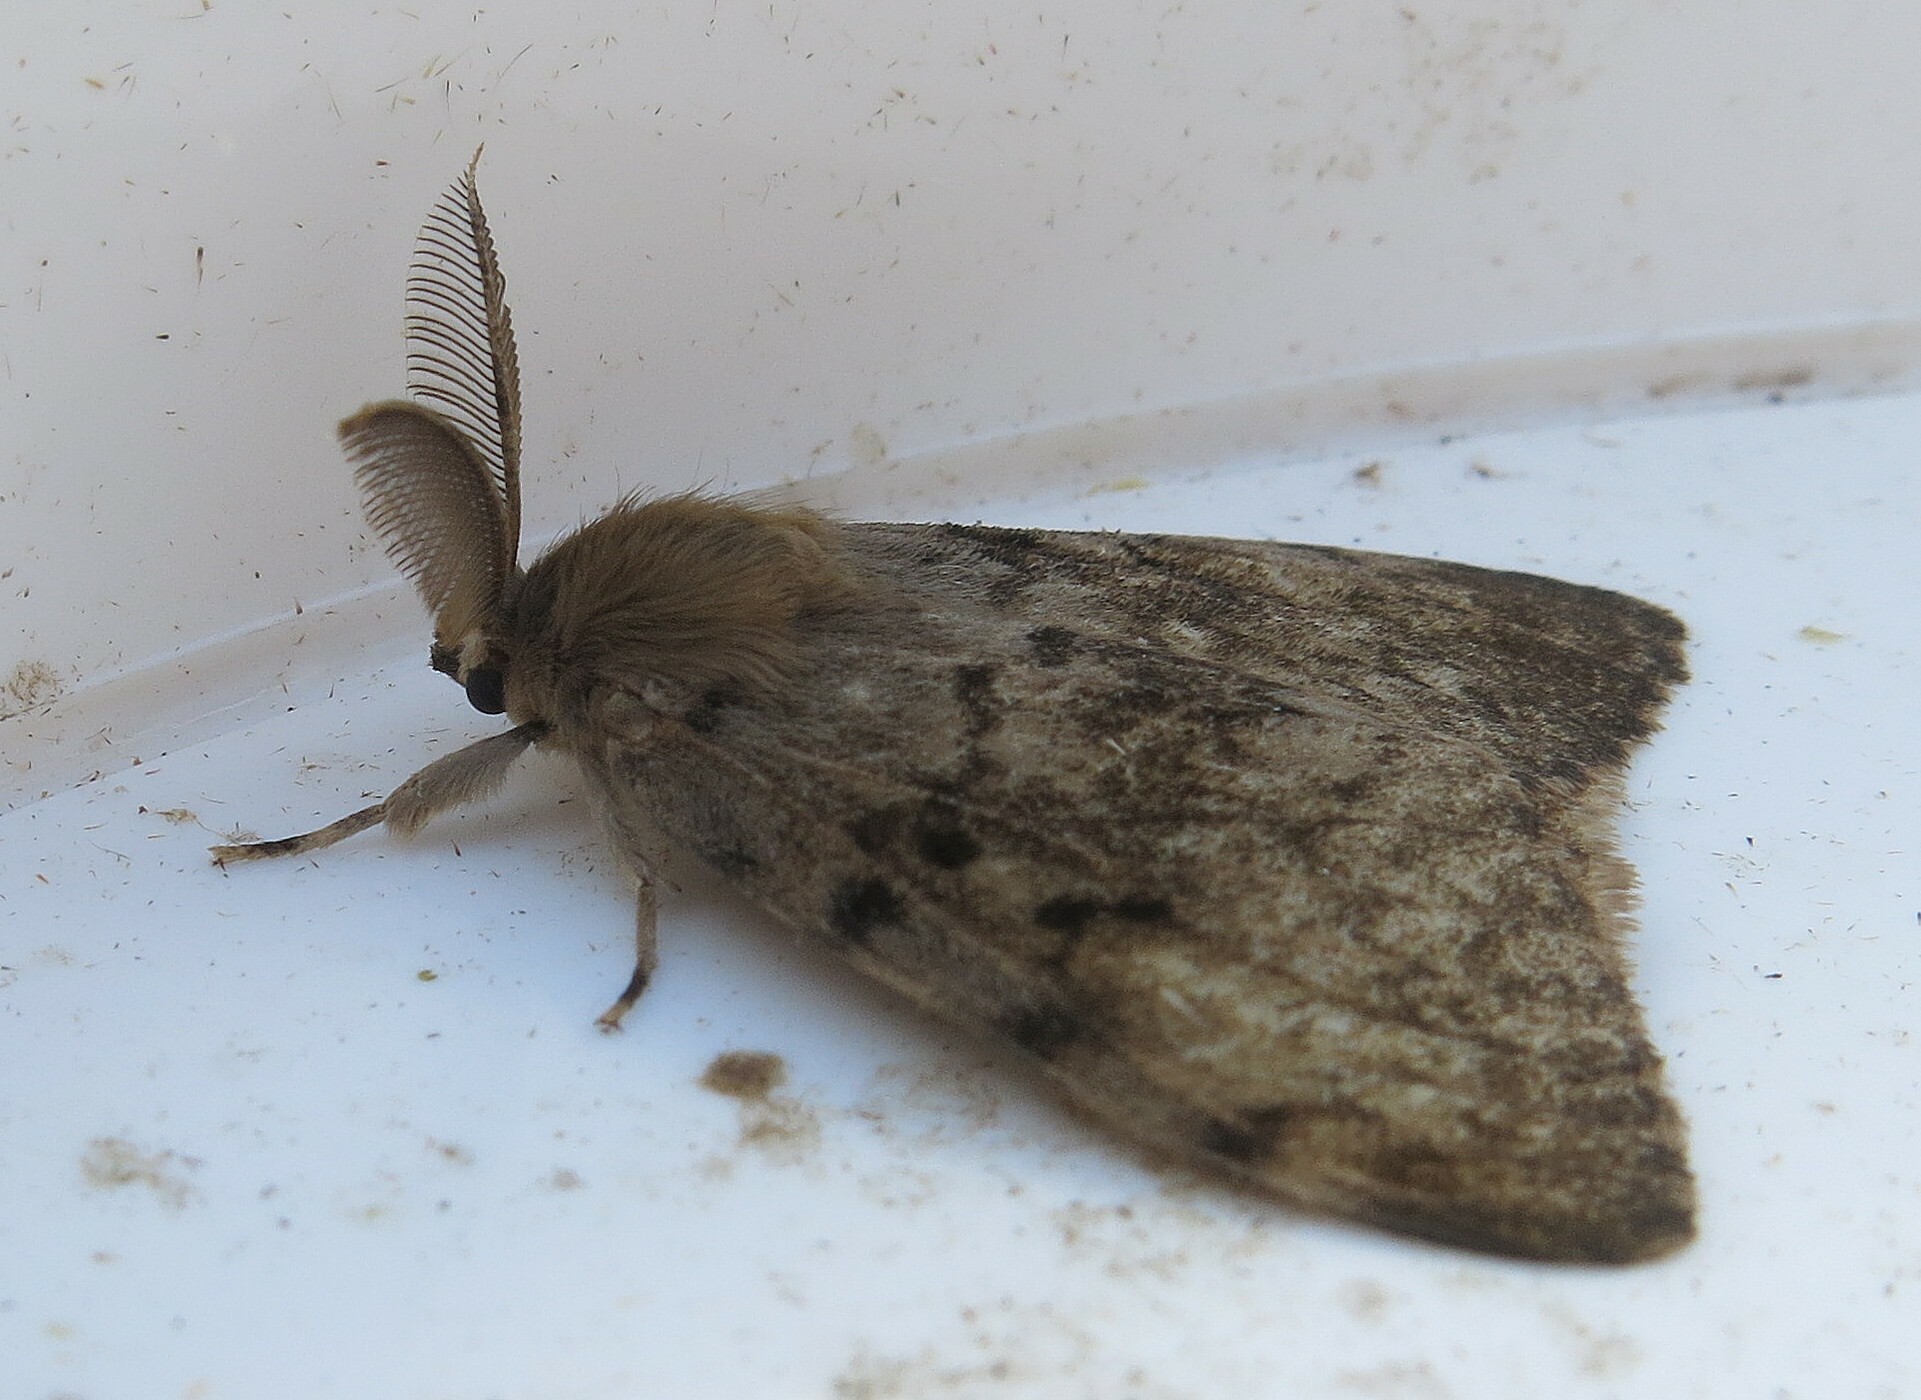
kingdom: Animalia
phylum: Arthropoda
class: Insecta
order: Lepidoptera
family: Erebidae
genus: Lymantria
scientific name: Lymantria dispar
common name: Gypsy moth
